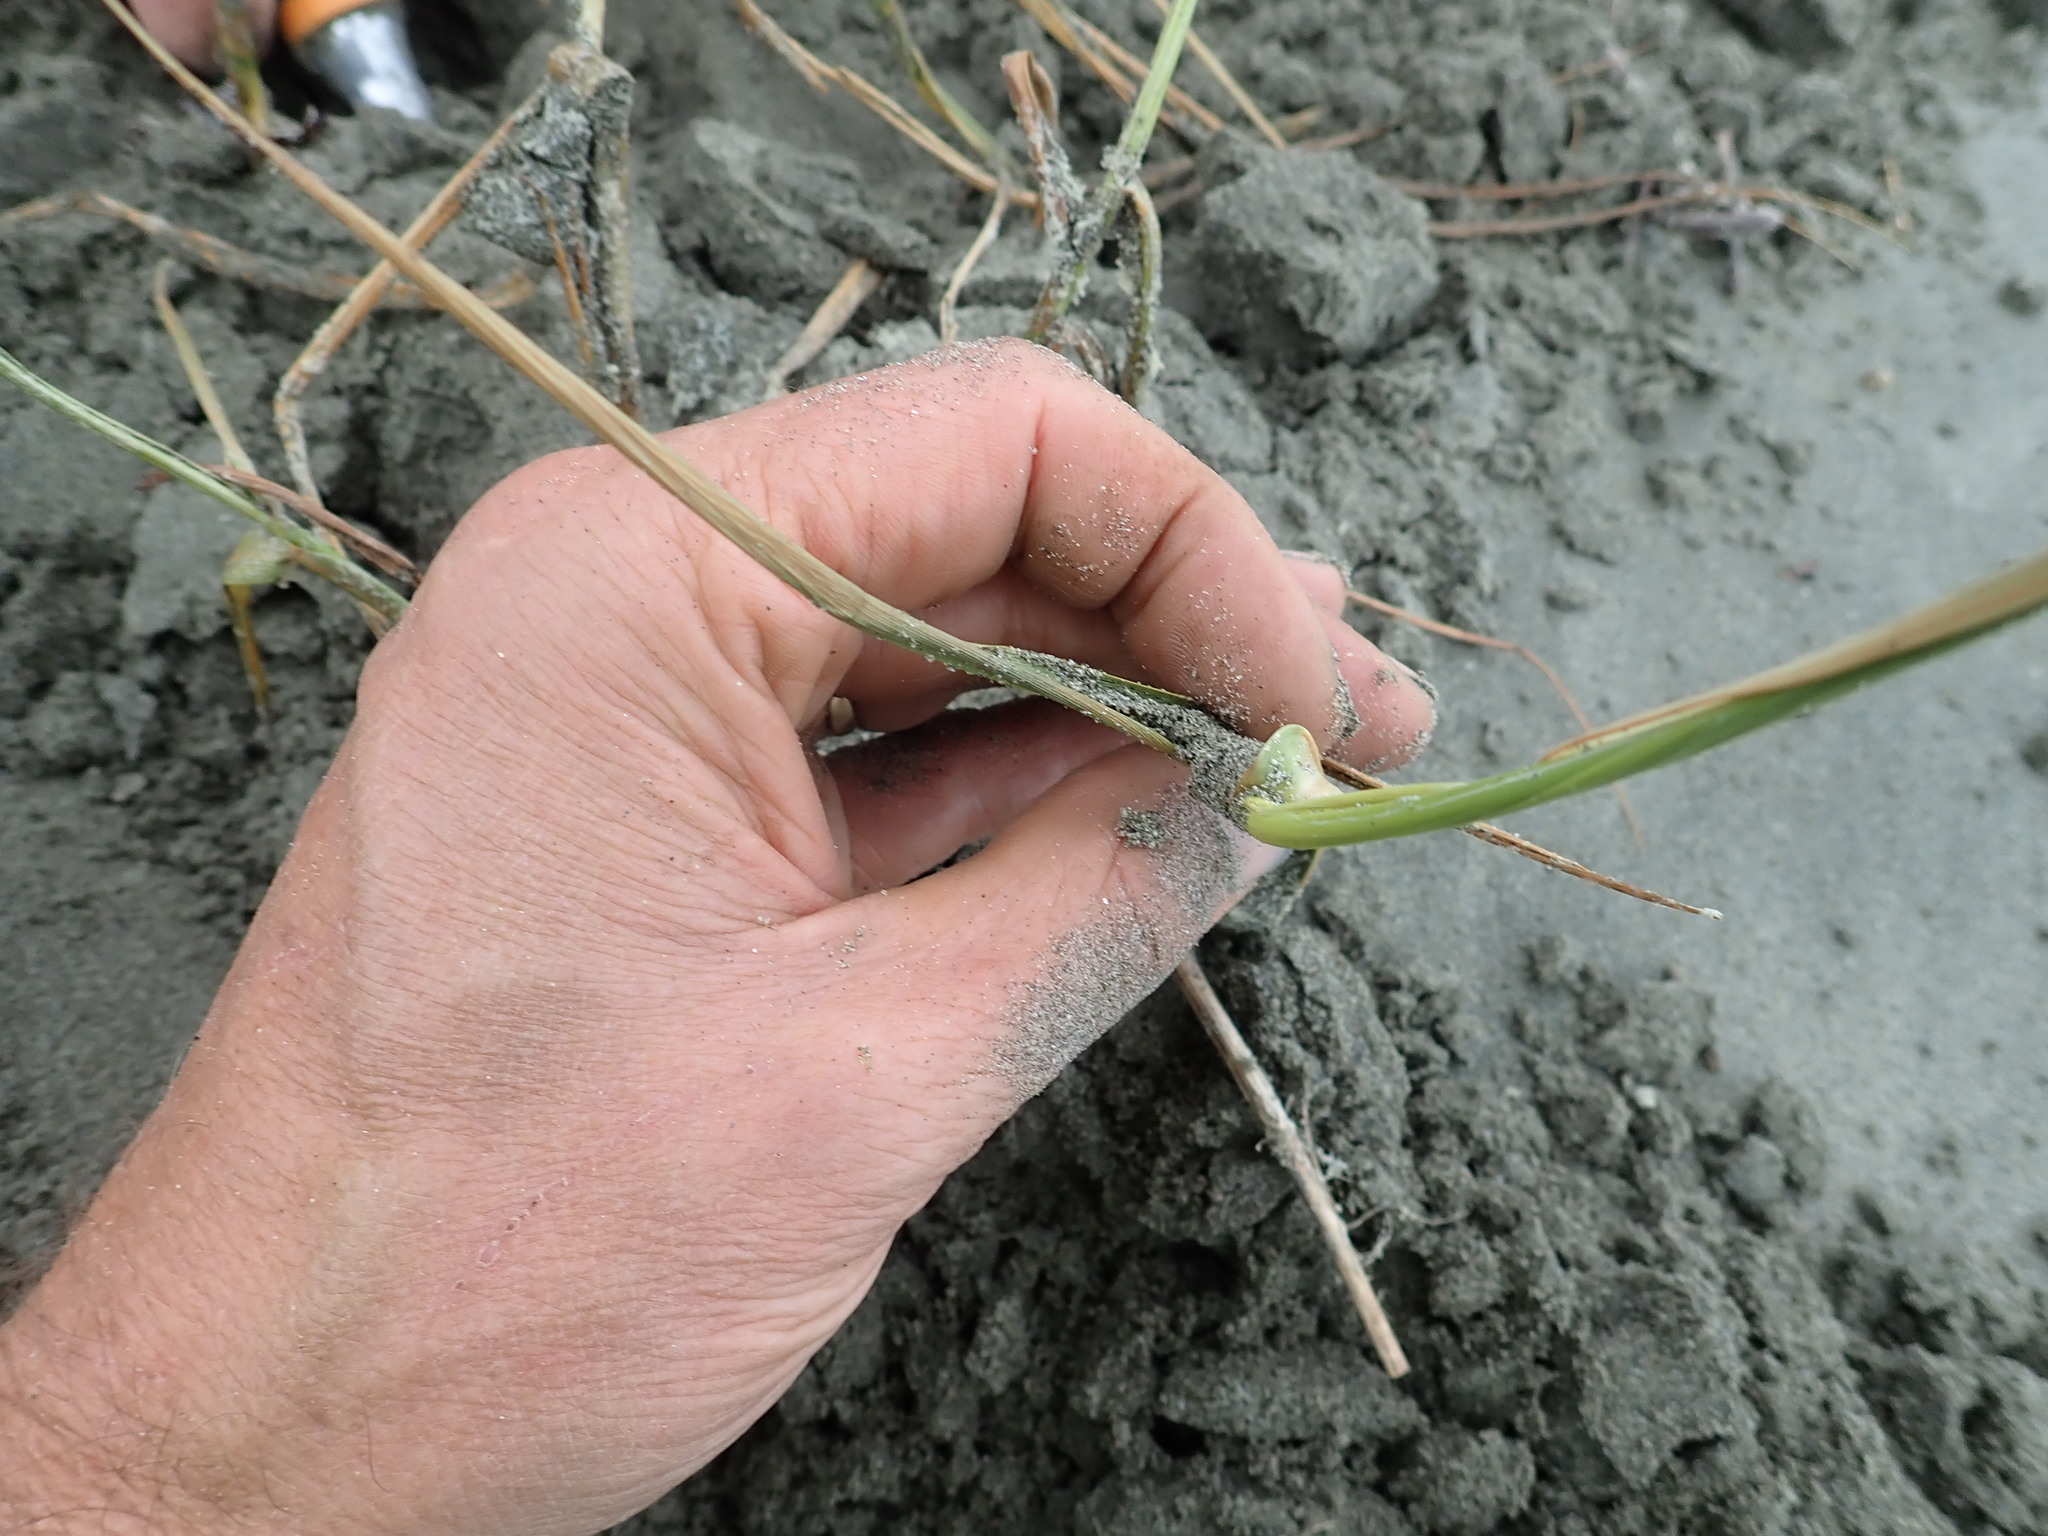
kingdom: Plantae
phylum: Tracheophyta
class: Liliopsida
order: Poales
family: Poaceae
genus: Phragmites
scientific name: Phragmites karka
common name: Tropical reed
